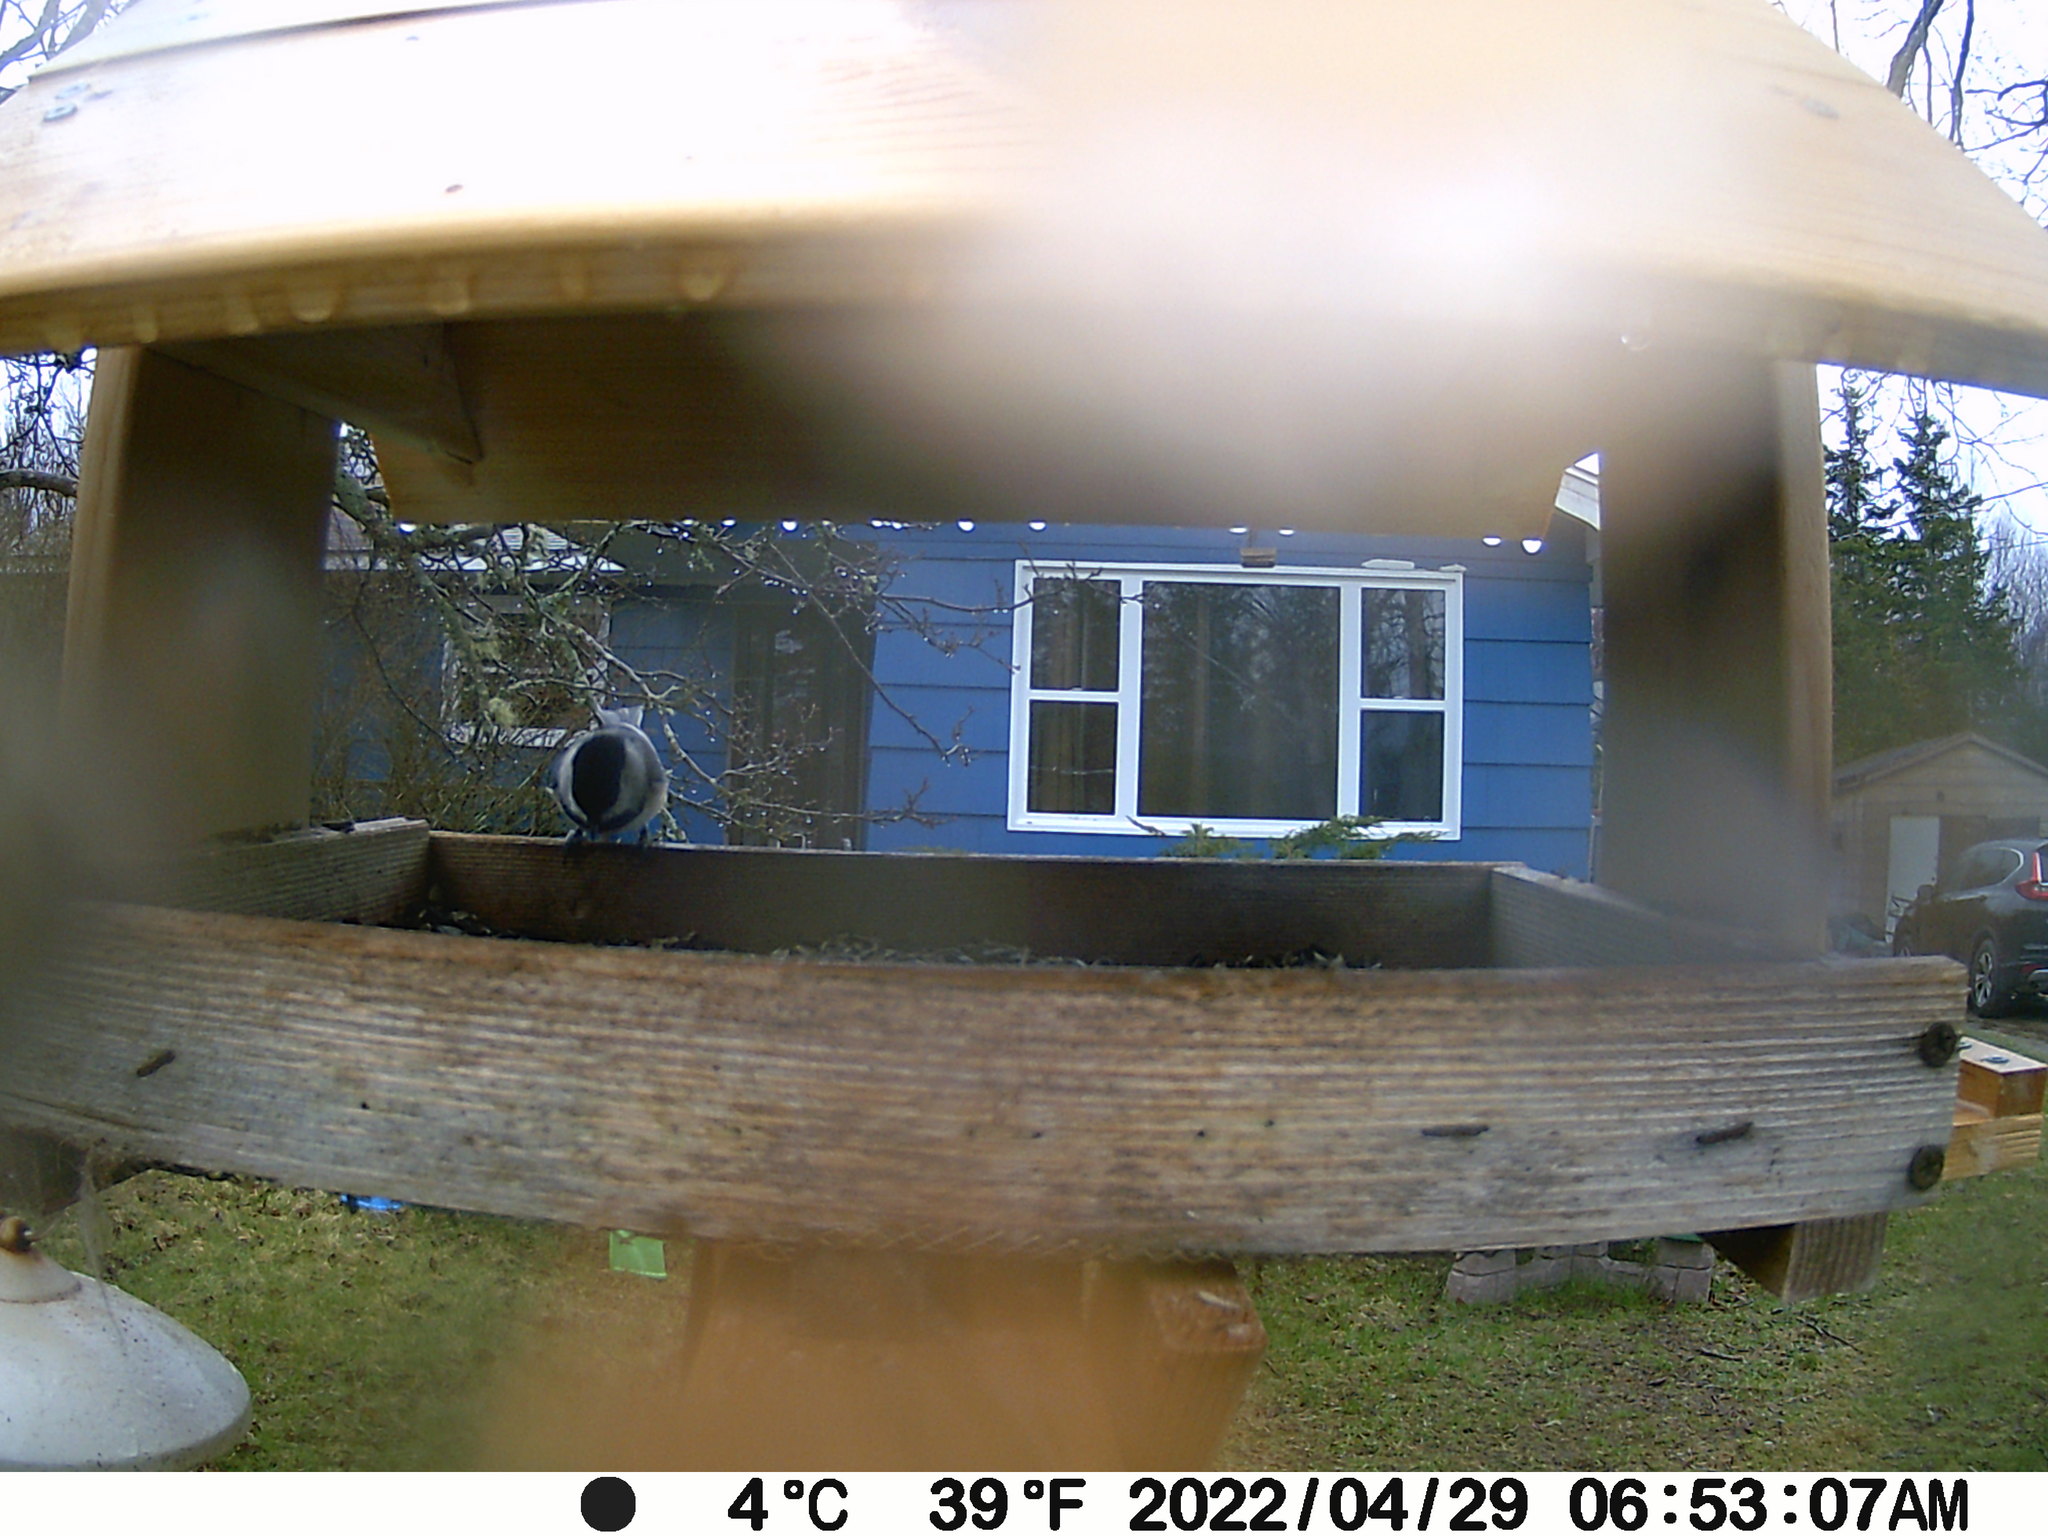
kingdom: Animalia
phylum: Chordata
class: Aves
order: Passeriformes
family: Paridae
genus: Poecile
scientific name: Poecile atricapillus
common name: Black-capped chickadee
